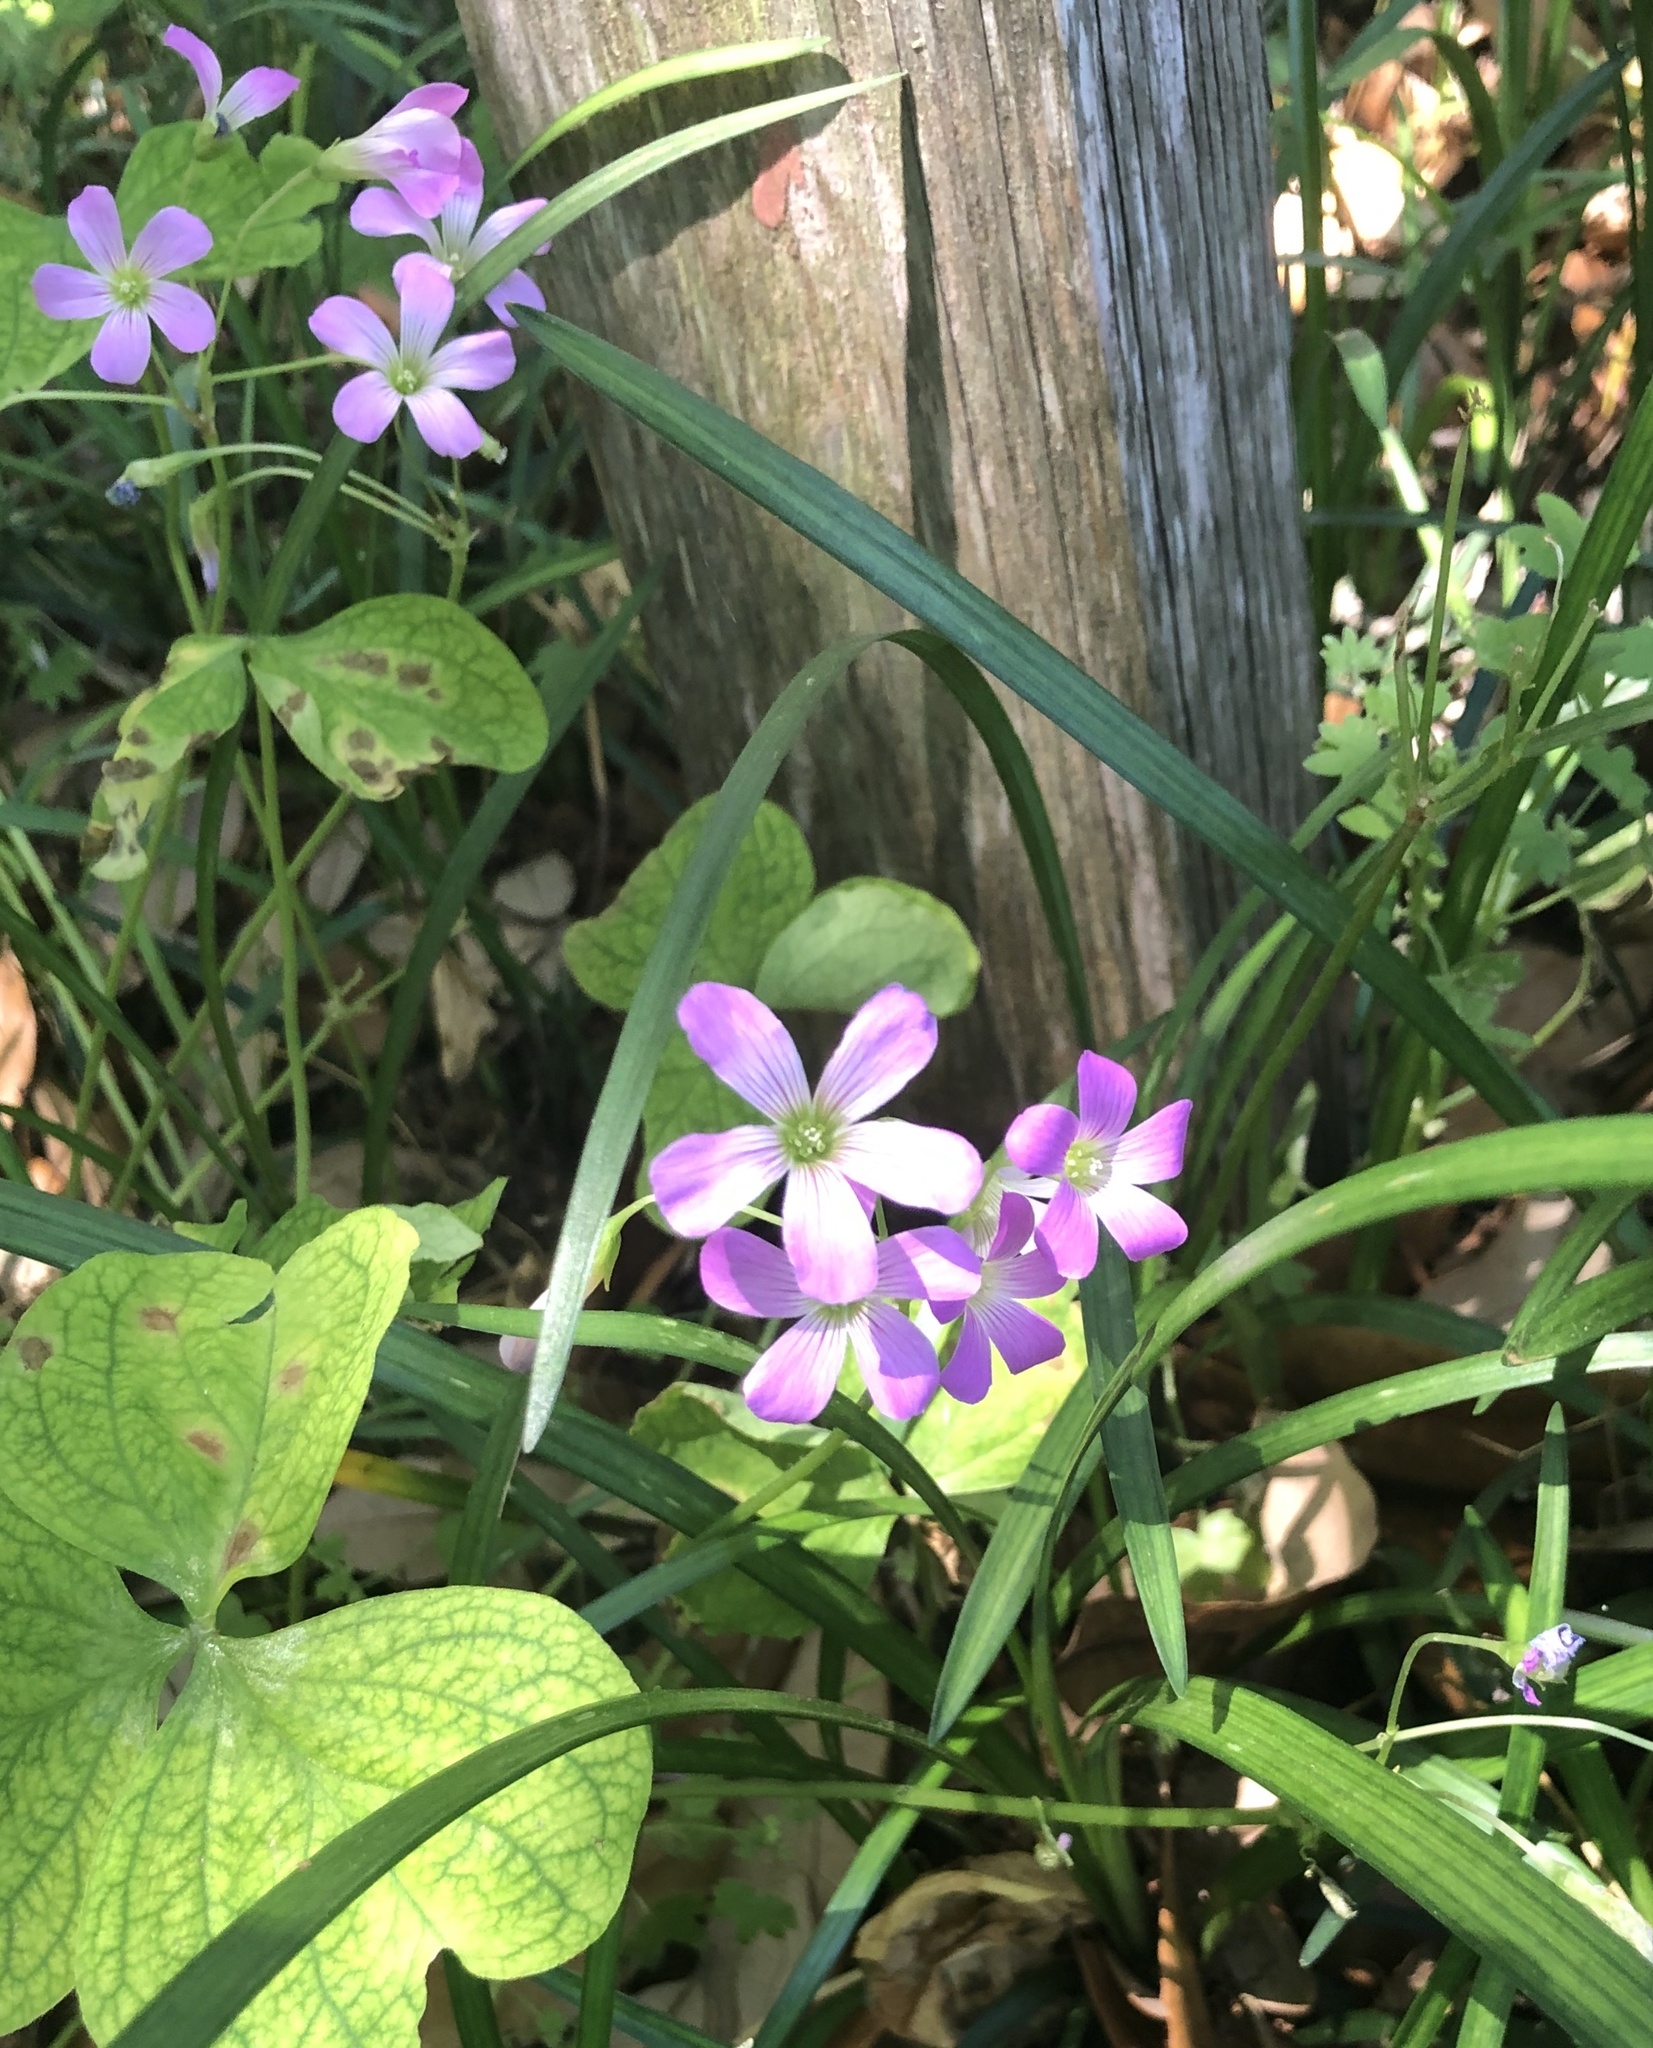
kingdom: Plantae
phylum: Tracheophyta
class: Magnoliopsida
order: Oxalidales
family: Oxalidaceae
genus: Oxalis
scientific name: Oxalis debilis
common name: Large-flowered pink-sorrel
